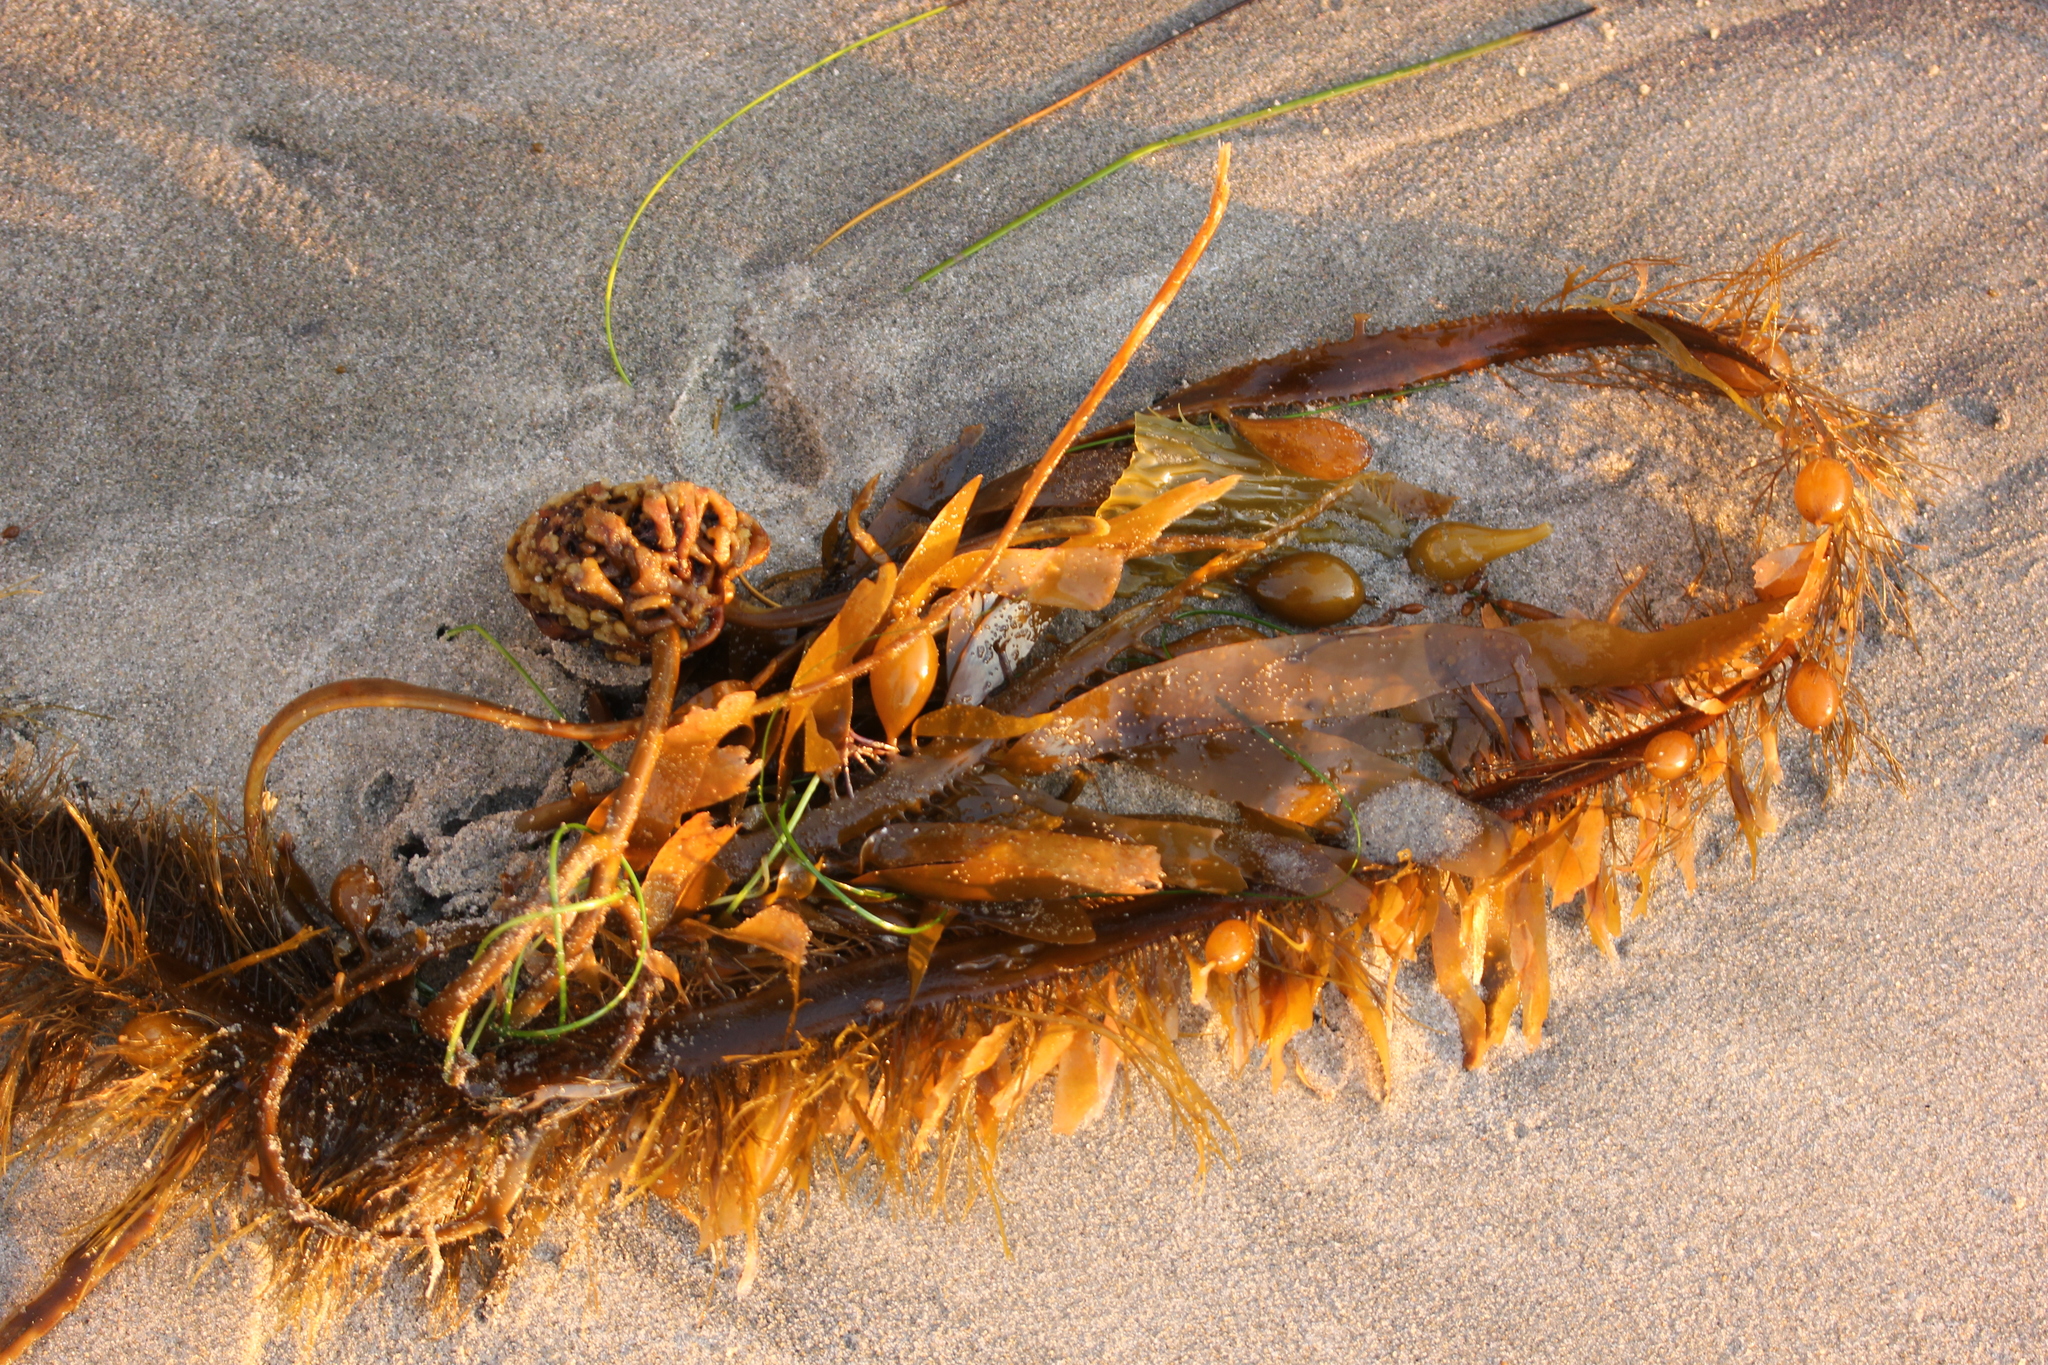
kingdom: Chromista
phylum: Ochrophyta
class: Phaeophyceae
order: Laminariales
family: Lessoniaceae
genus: Egregia
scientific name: Egregia menziesii
